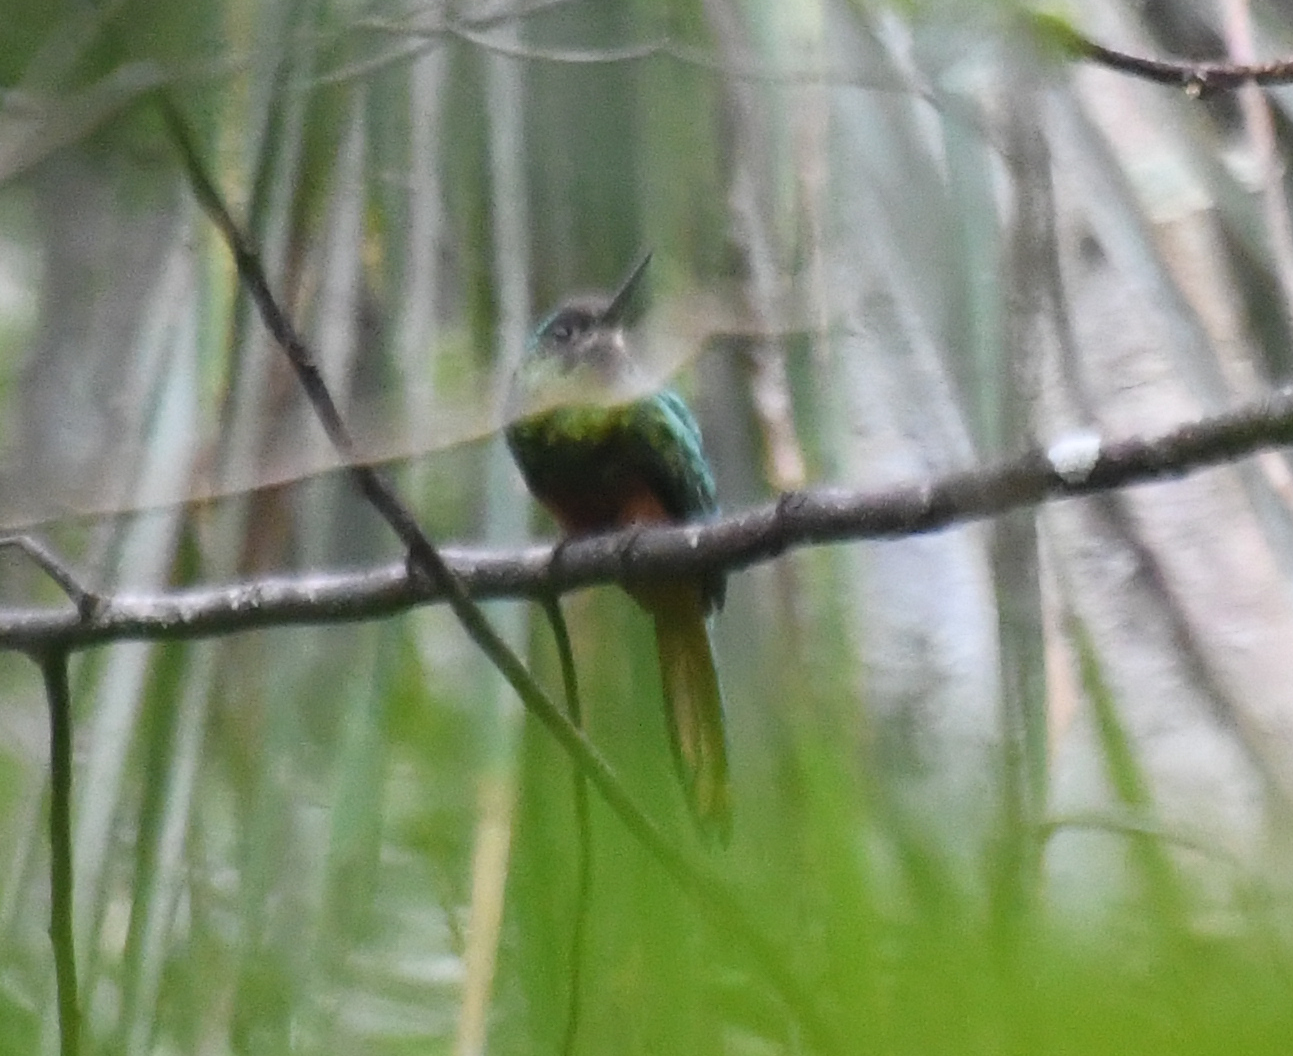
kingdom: Animalia
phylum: Chordata
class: Aves
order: Piciformes
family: Galbulidae
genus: Galbula
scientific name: Galbula tombacea
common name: White-chinned jacamar
